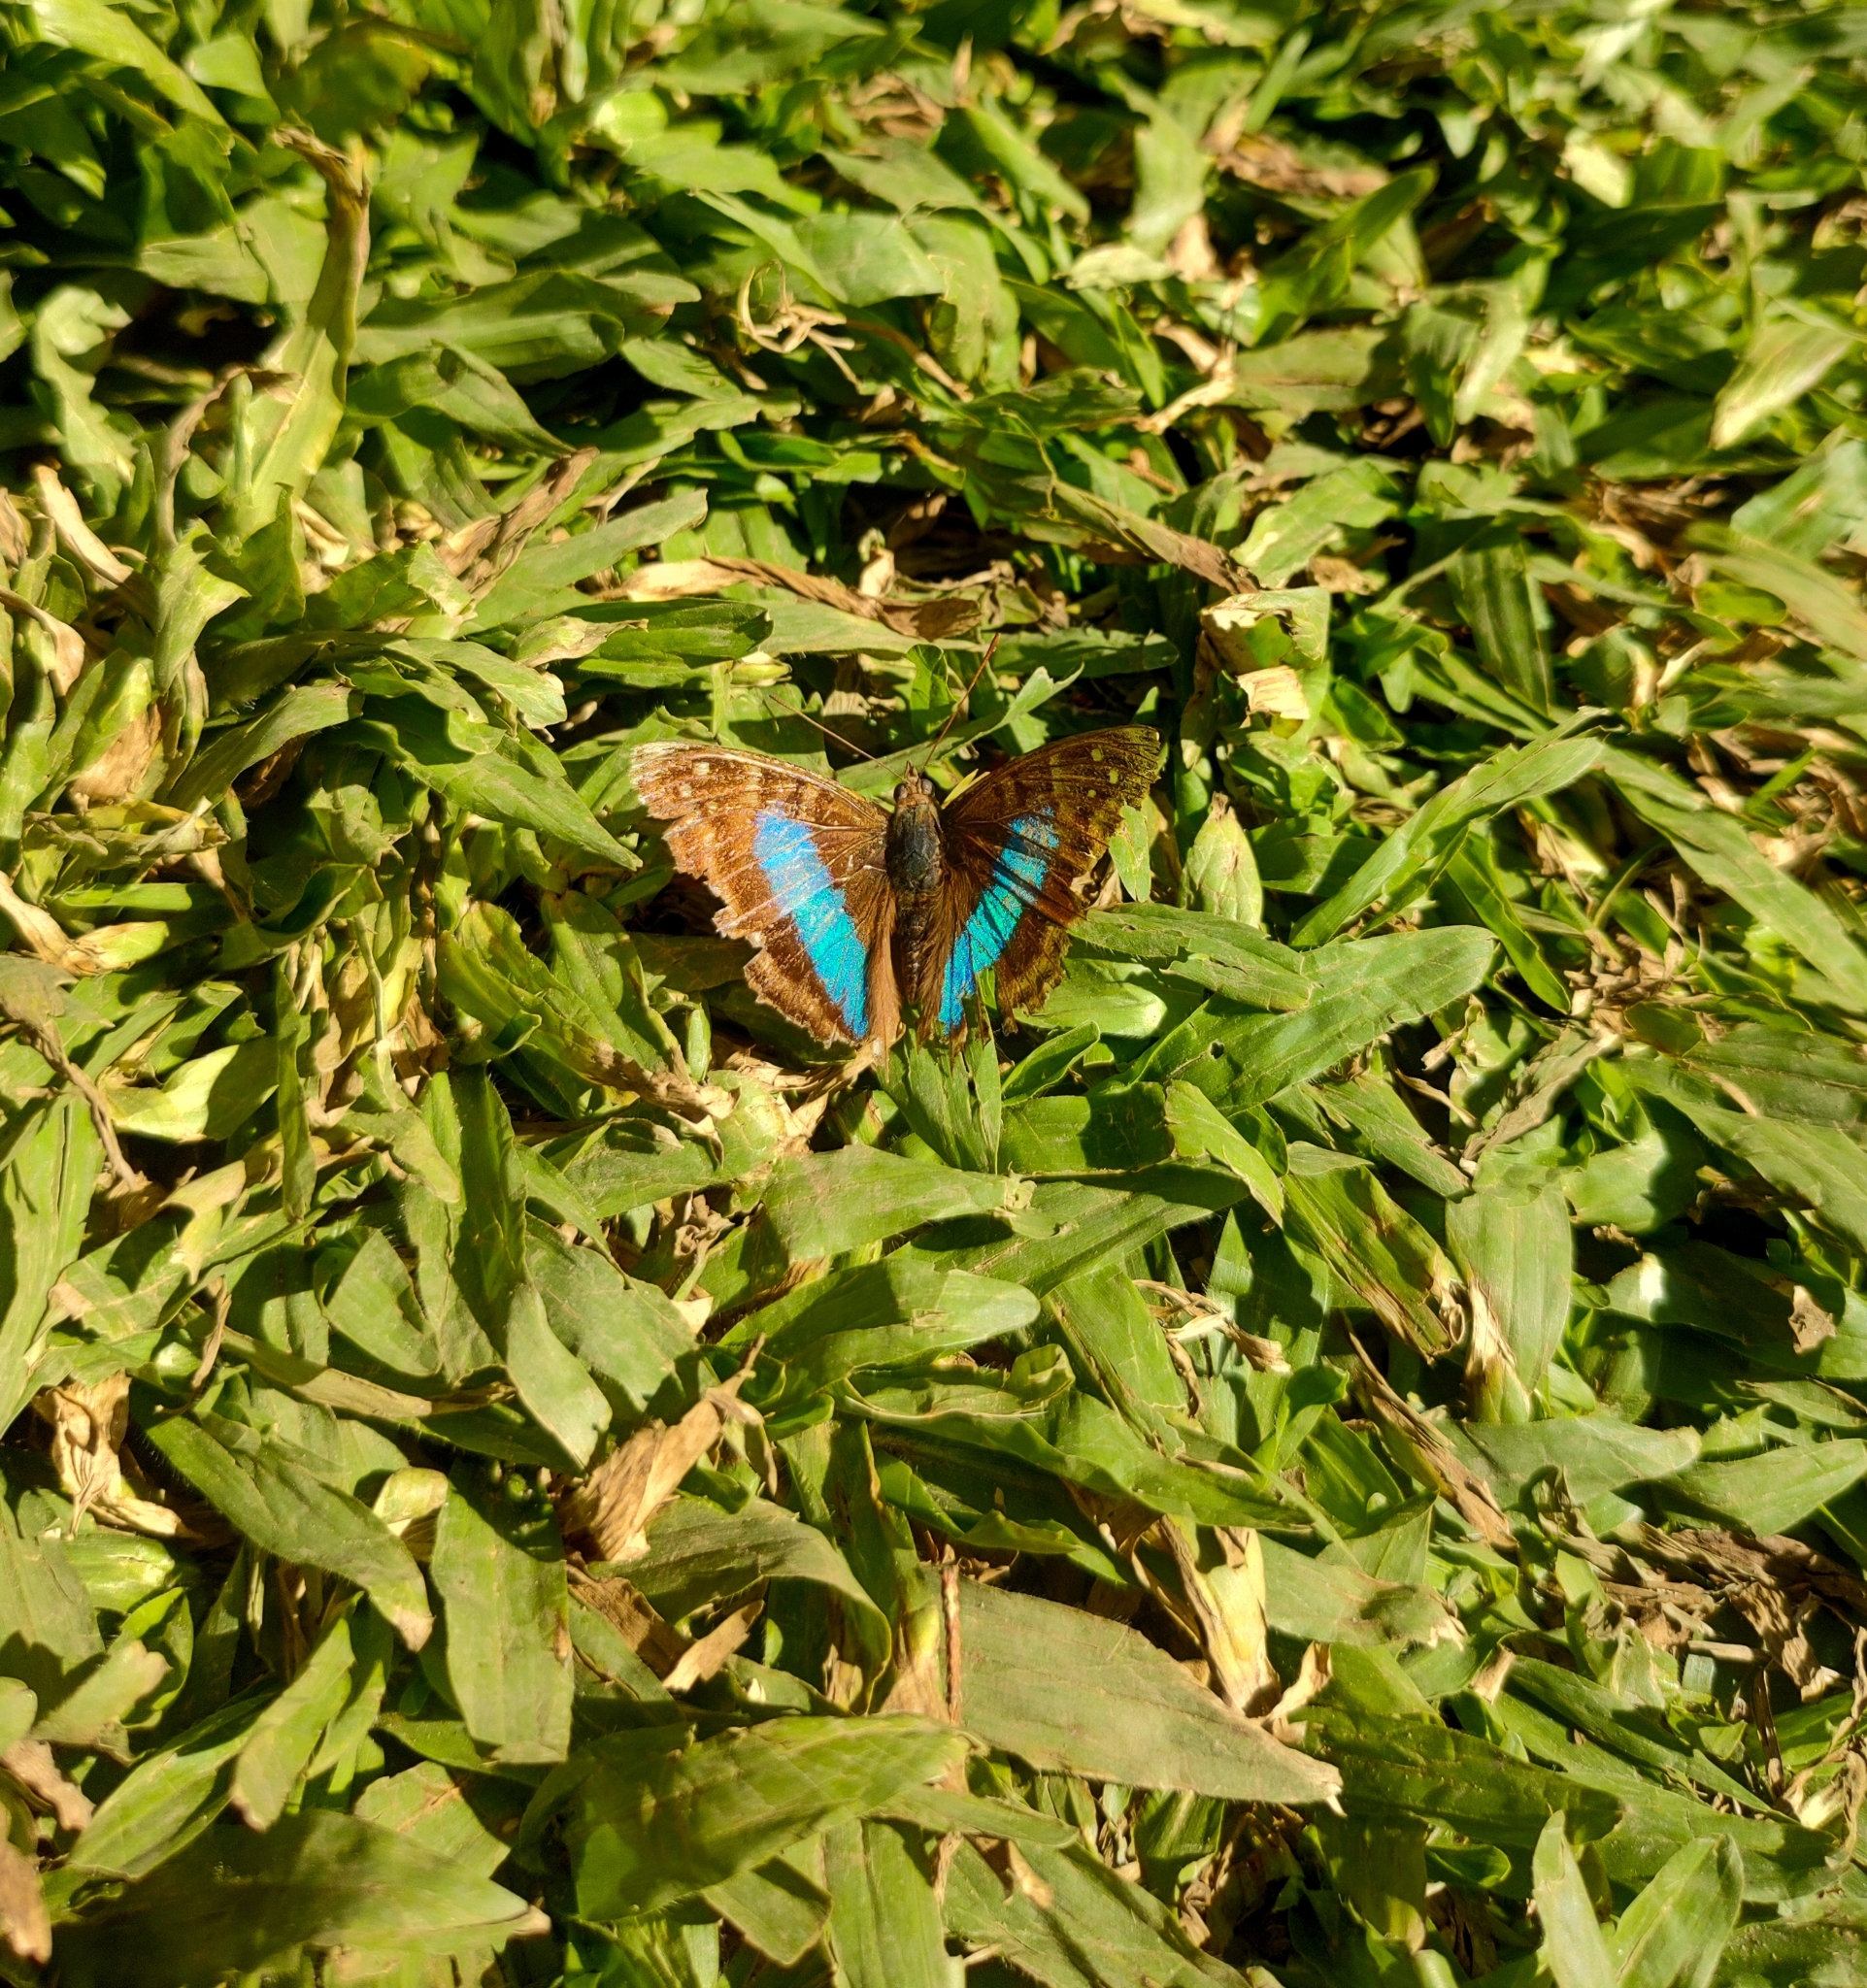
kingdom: Animalia
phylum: Arthropoda
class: Insecta
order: Lepidoptera
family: Nymphalidae
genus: Doxocopa
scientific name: Doxocopa laurentia
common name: Turquoise emperor
